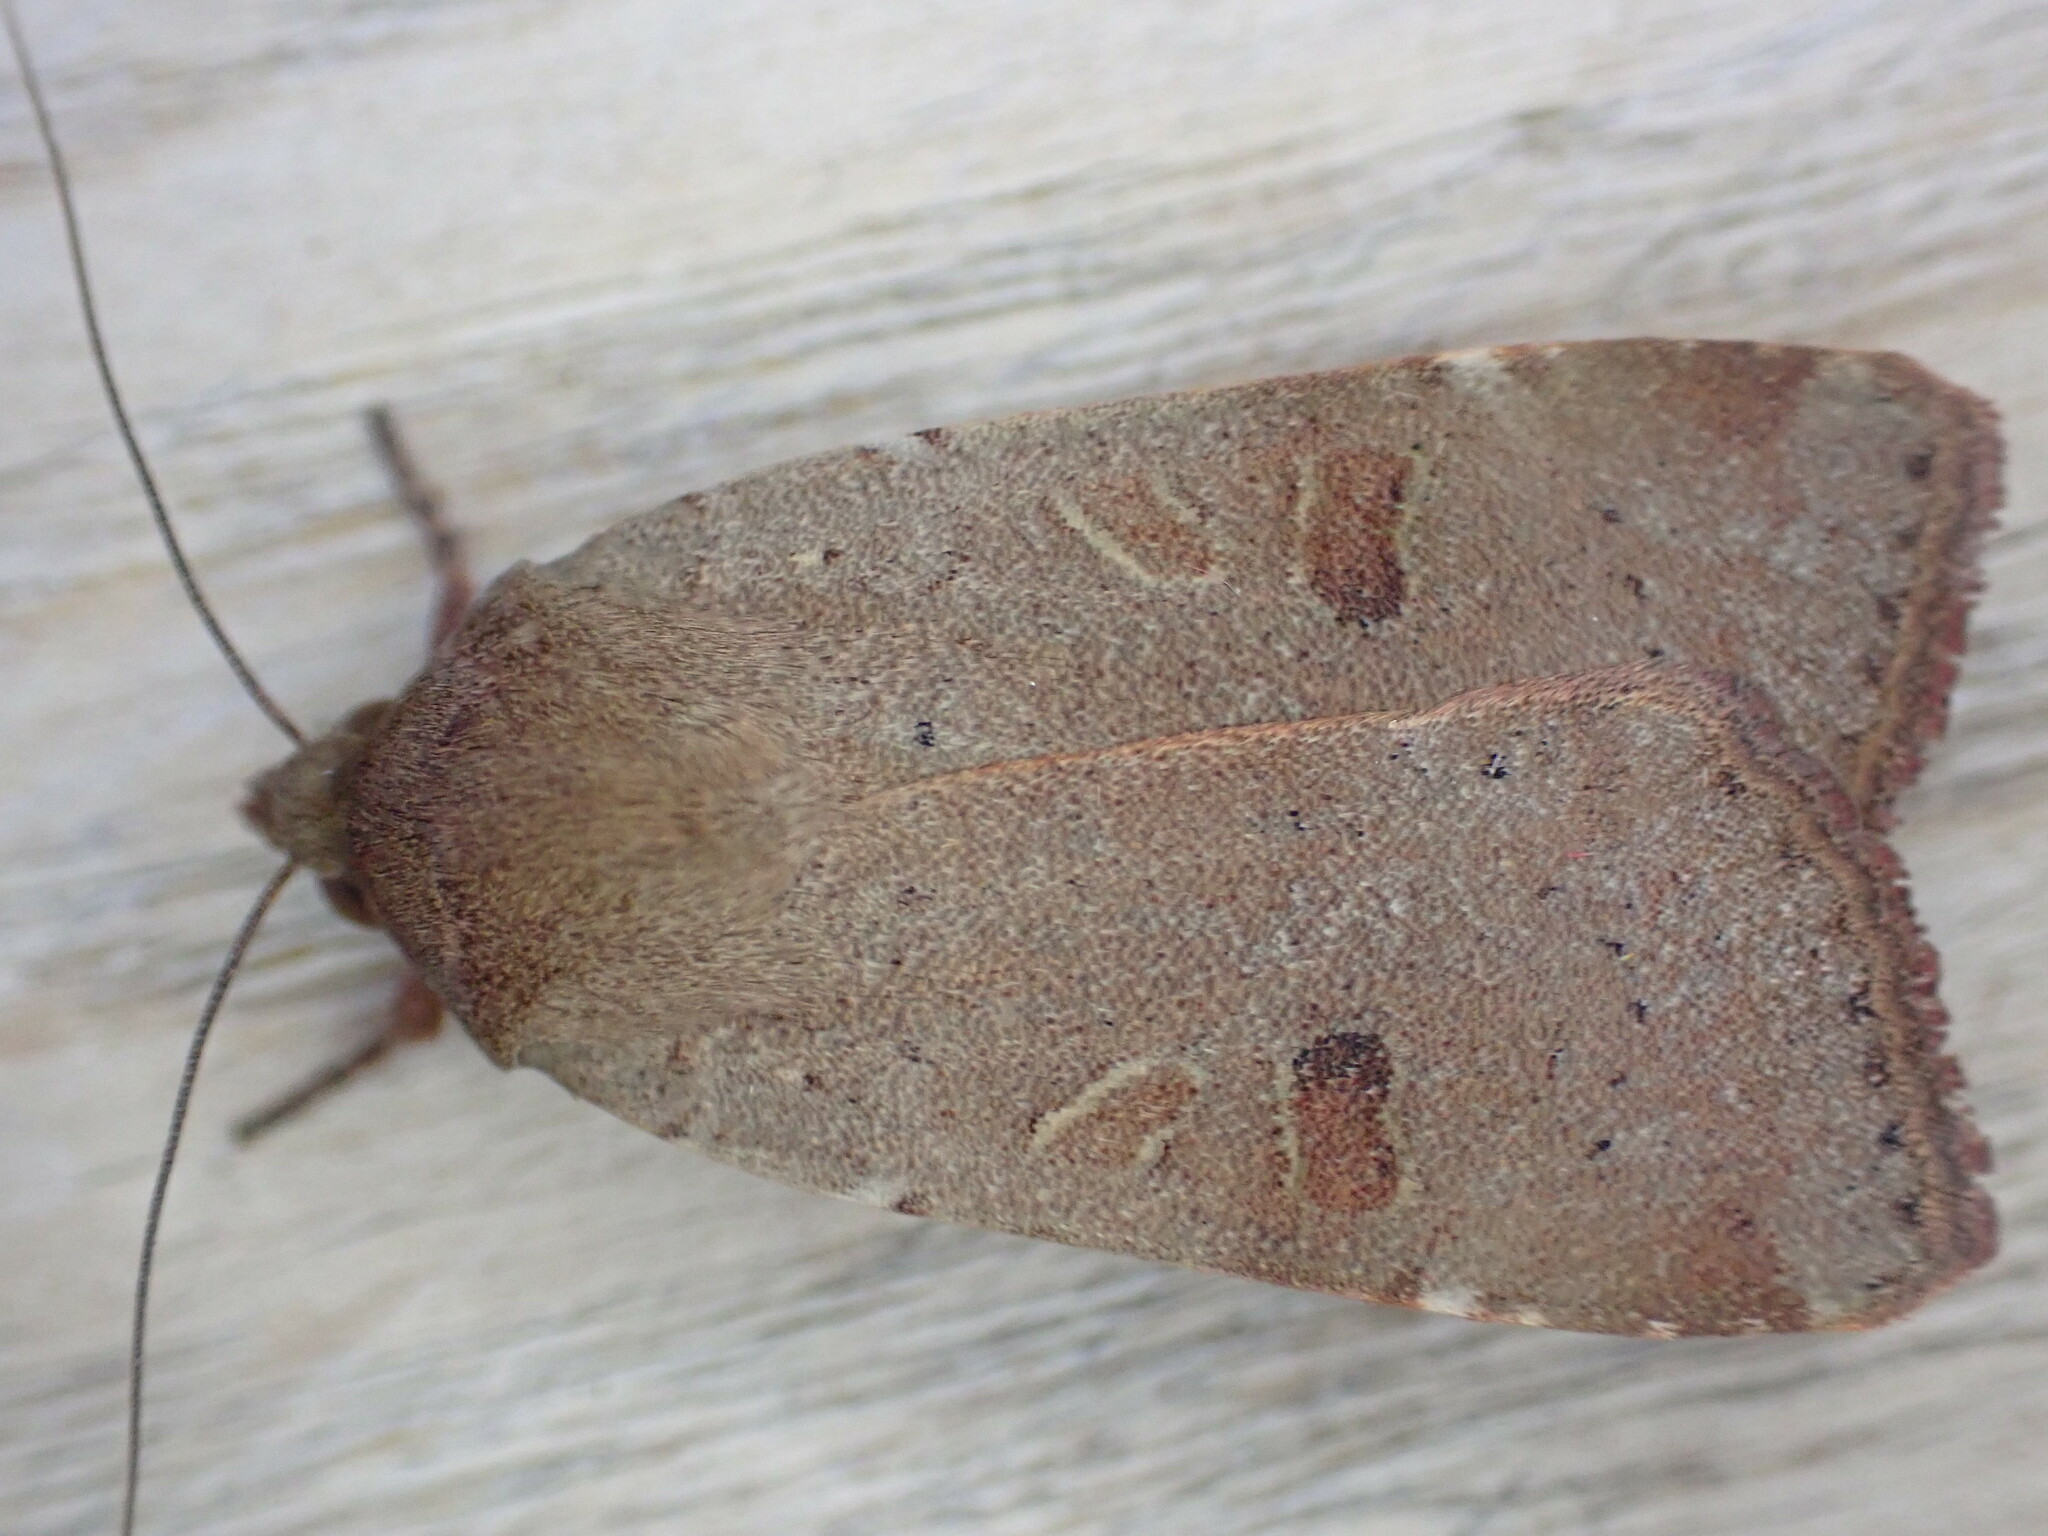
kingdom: Animalia
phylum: Arthropoda
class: Insecta
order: Lepidoptera
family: Noctuidae
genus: Noctua
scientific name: Noctua comes
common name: Lesser yellow underwing
